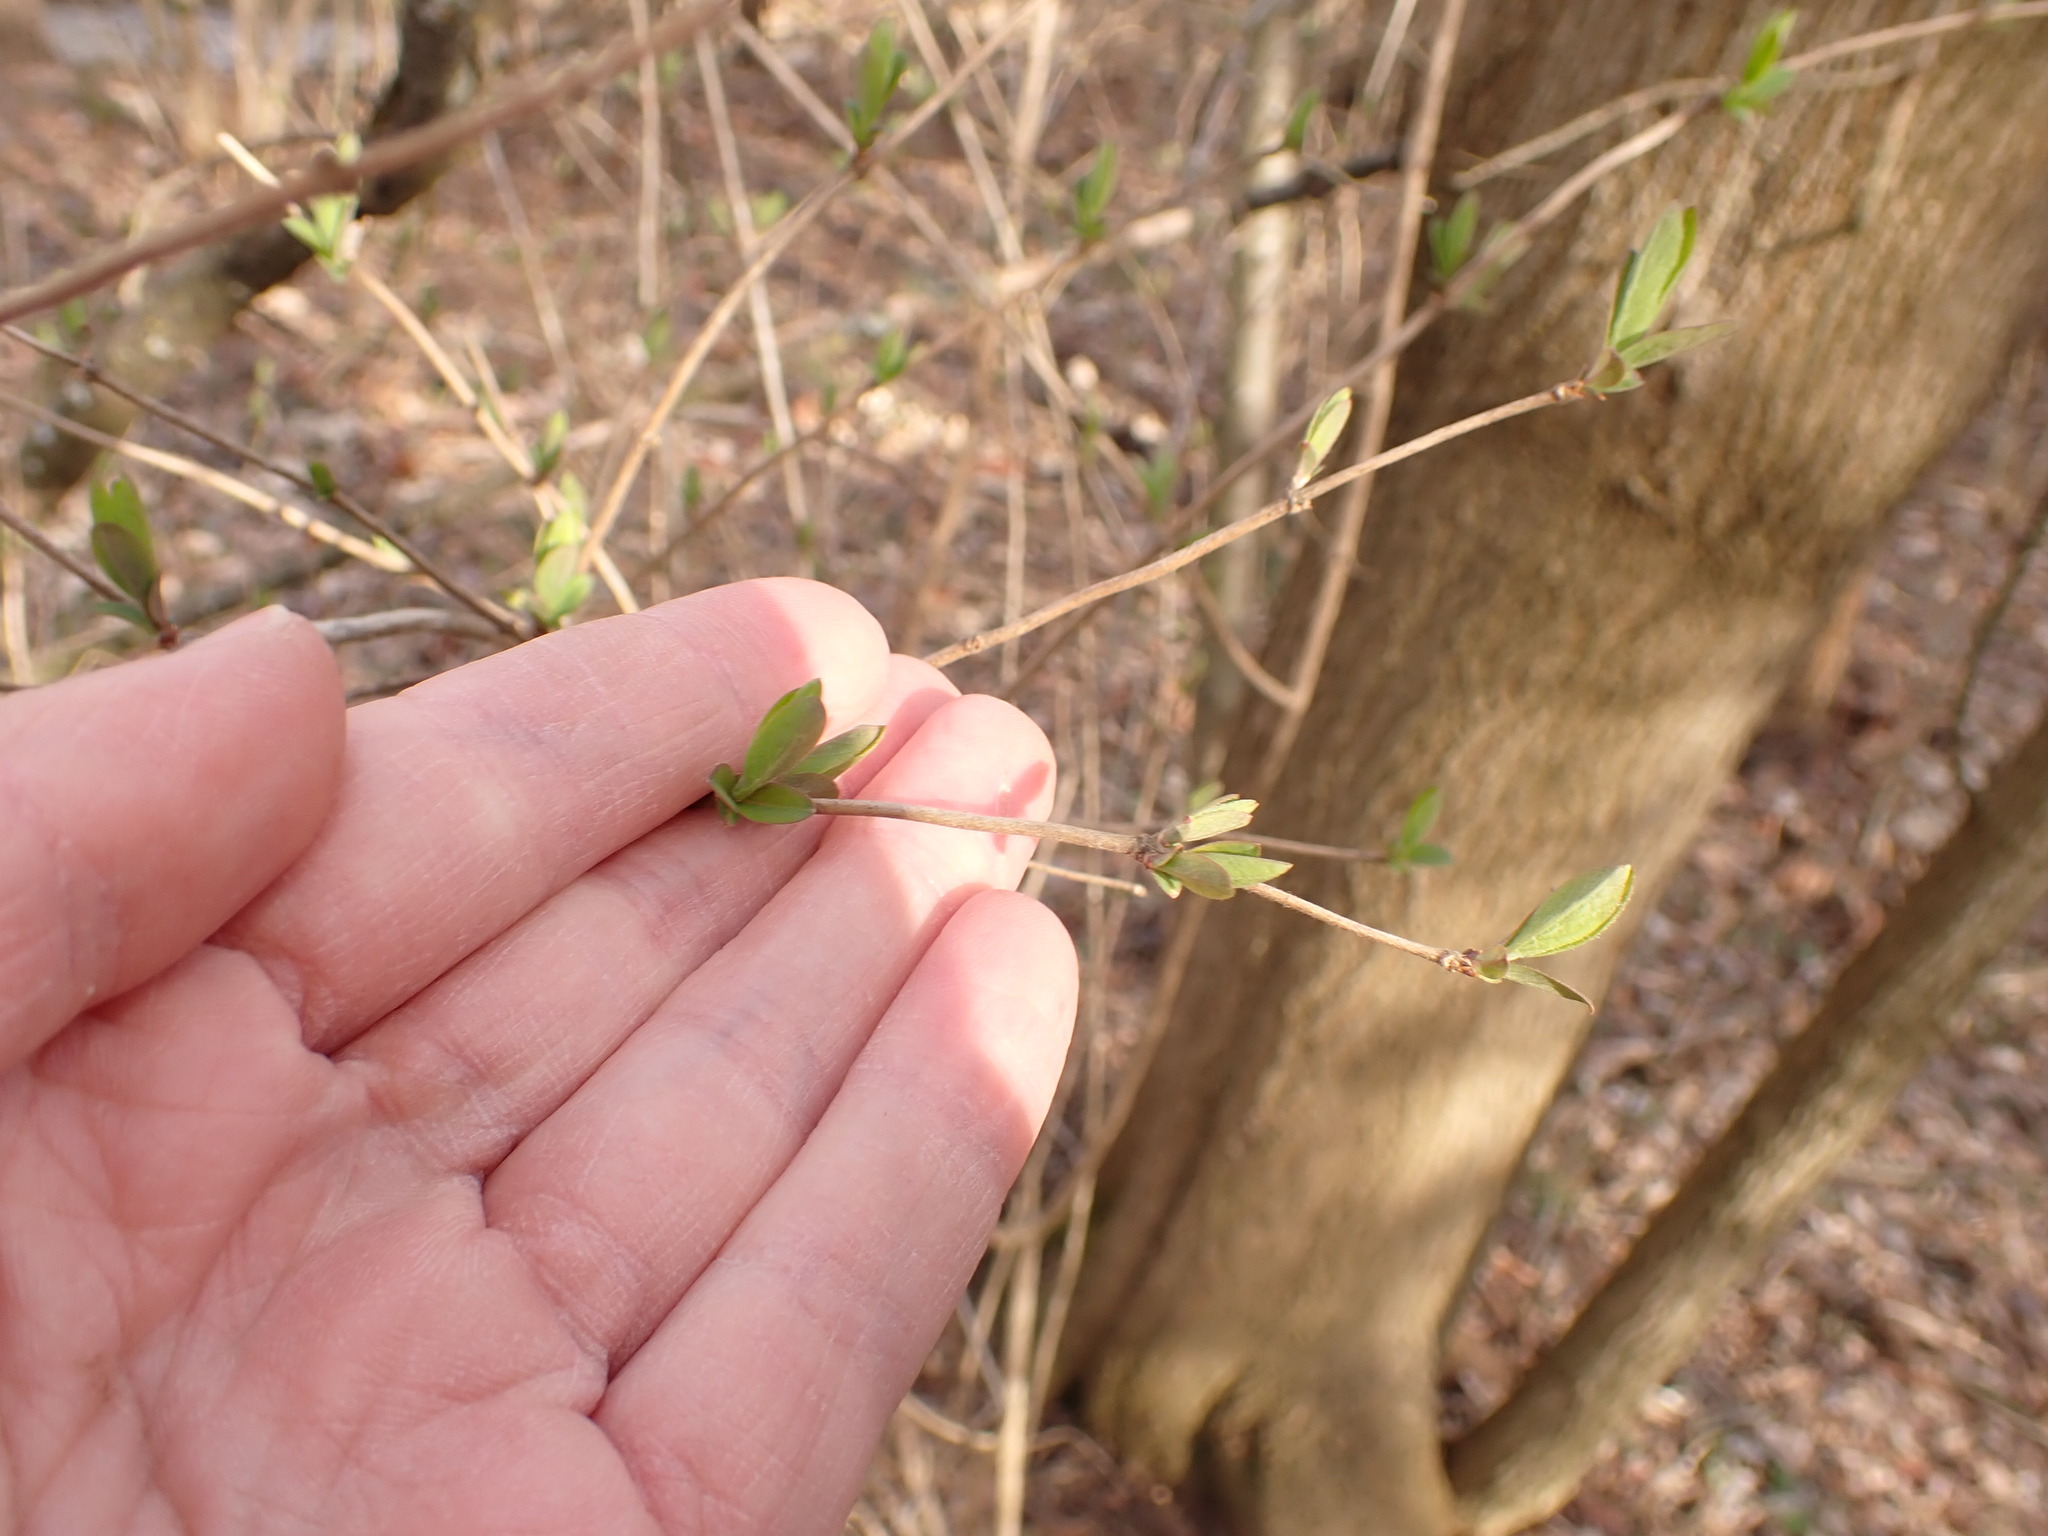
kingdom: Plantae
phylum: Tracheophyta
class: Magnoliopsida
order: Dipsacales
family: Caprifoliaceae
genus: Lonicera
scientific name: Lonicera maackii
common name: Amur honeysuckle
